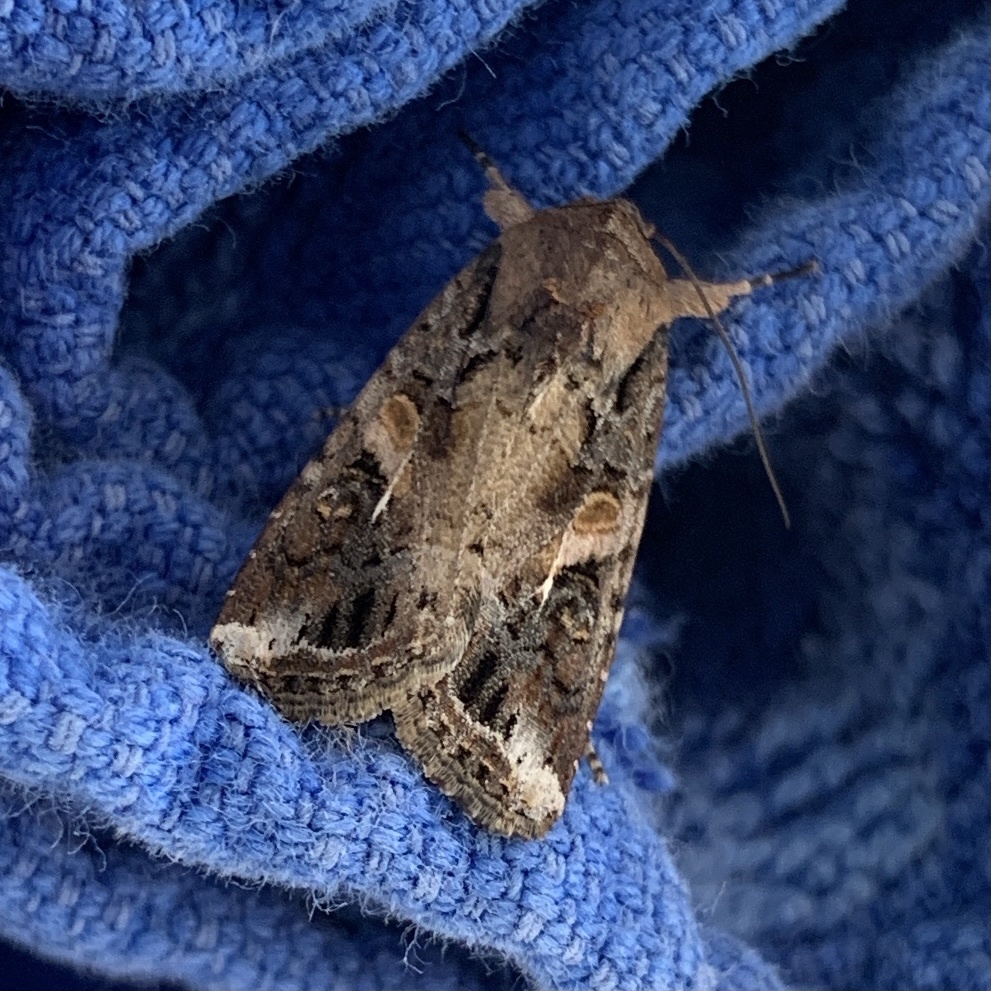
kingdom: Animalia
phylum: Arthropoda
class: Insecta
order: Lepidoptera
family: Noctuidae
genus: Spodoptera
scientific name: Spodoptera frugiperda
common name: Fall armyworm
